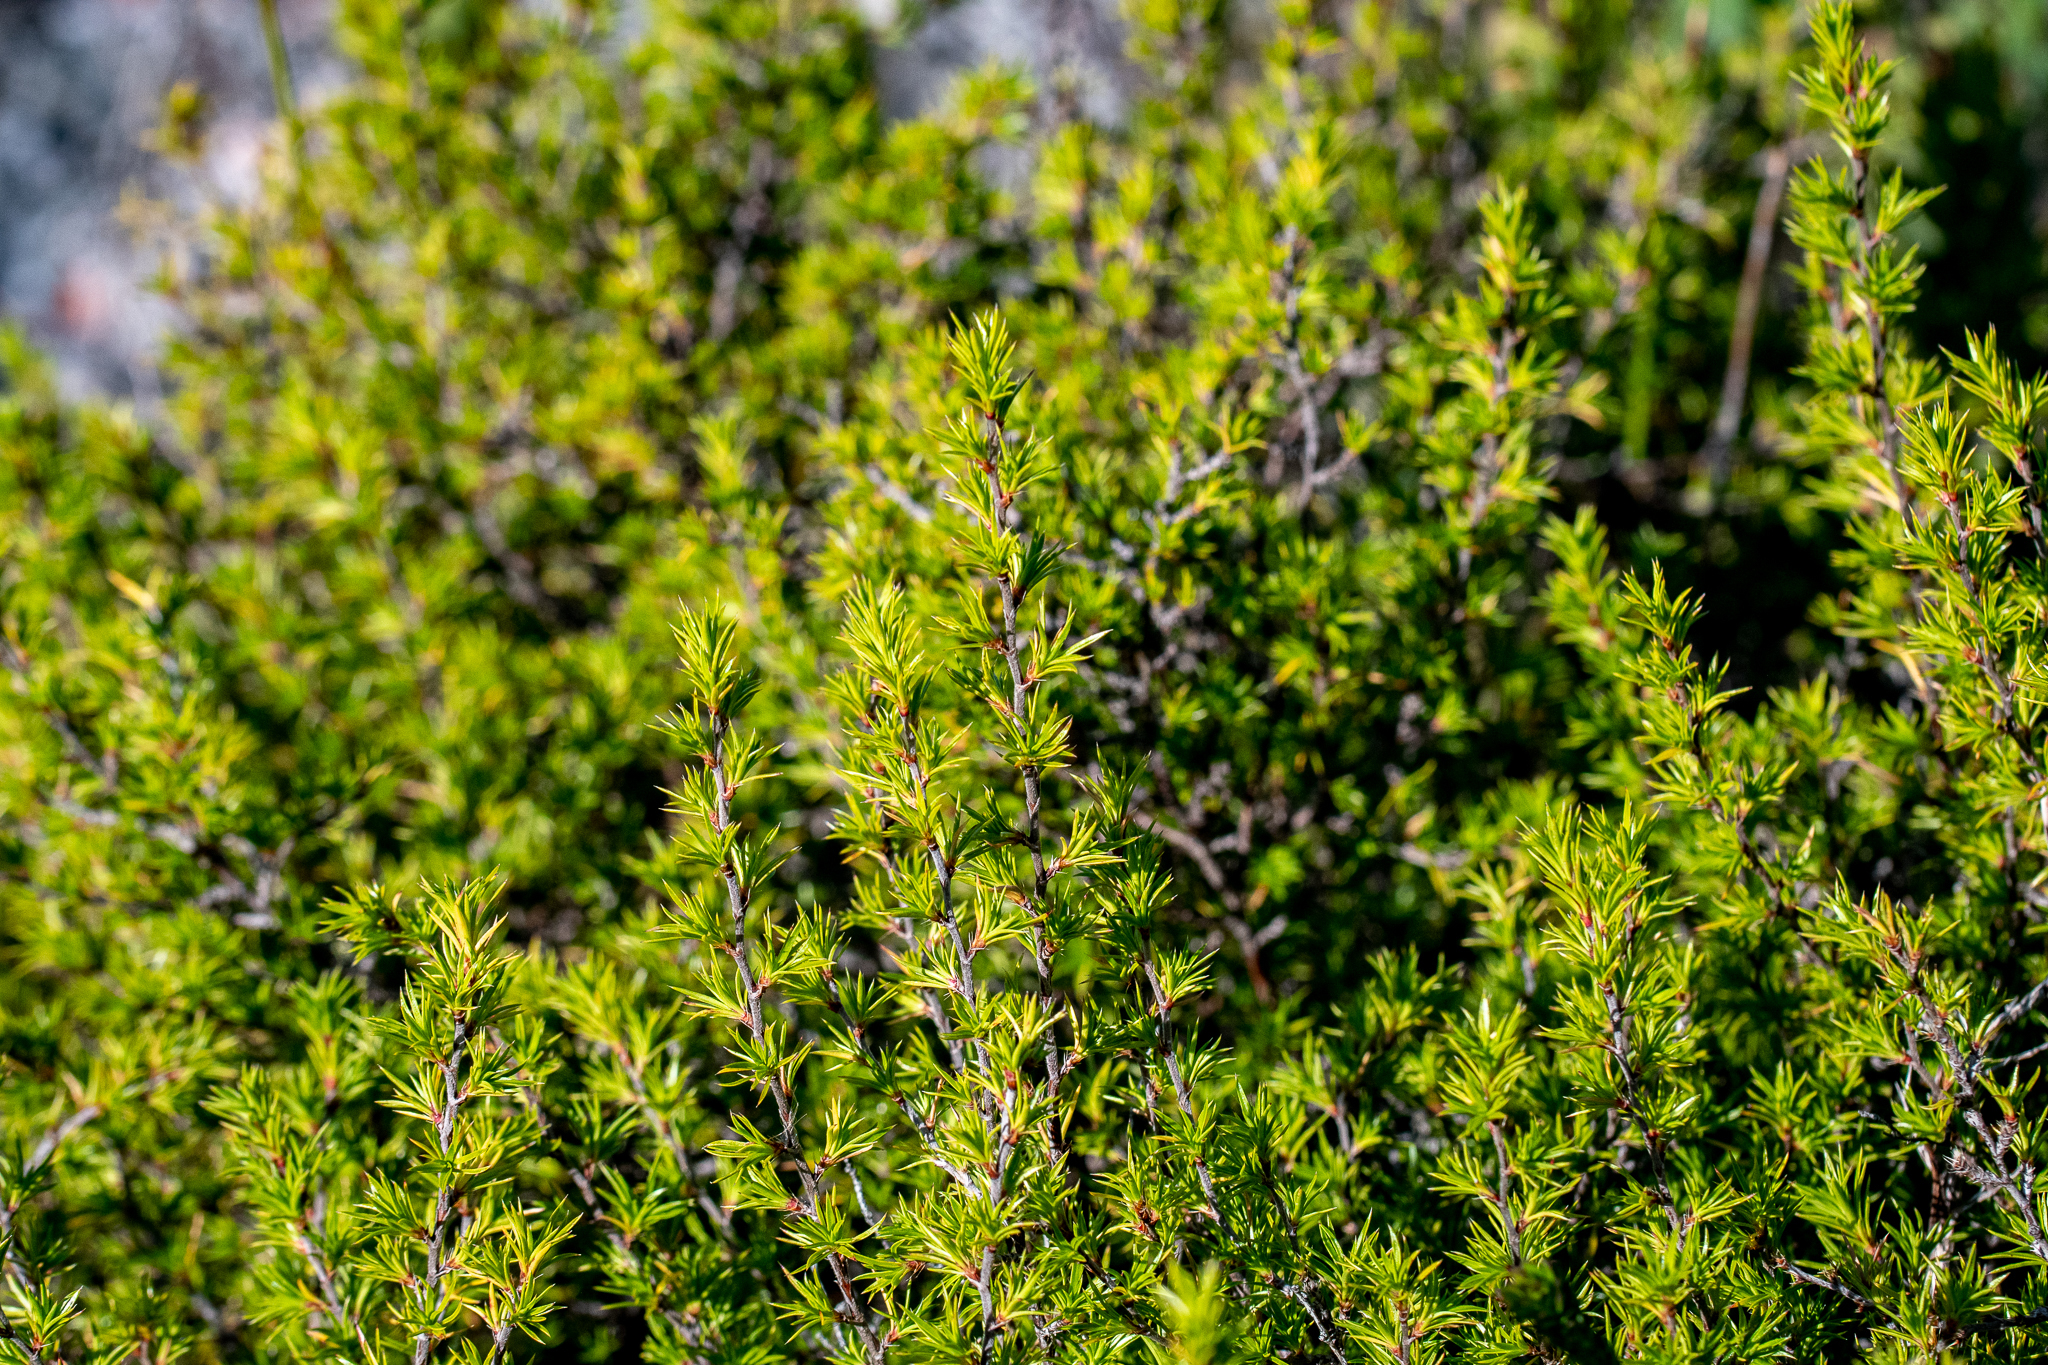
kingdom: Plantae
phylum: Tracheophyta
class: Magnoliopsida
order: Rosales
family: Rosaceae
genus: Cliffortia
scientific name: Cliffortia atrata
